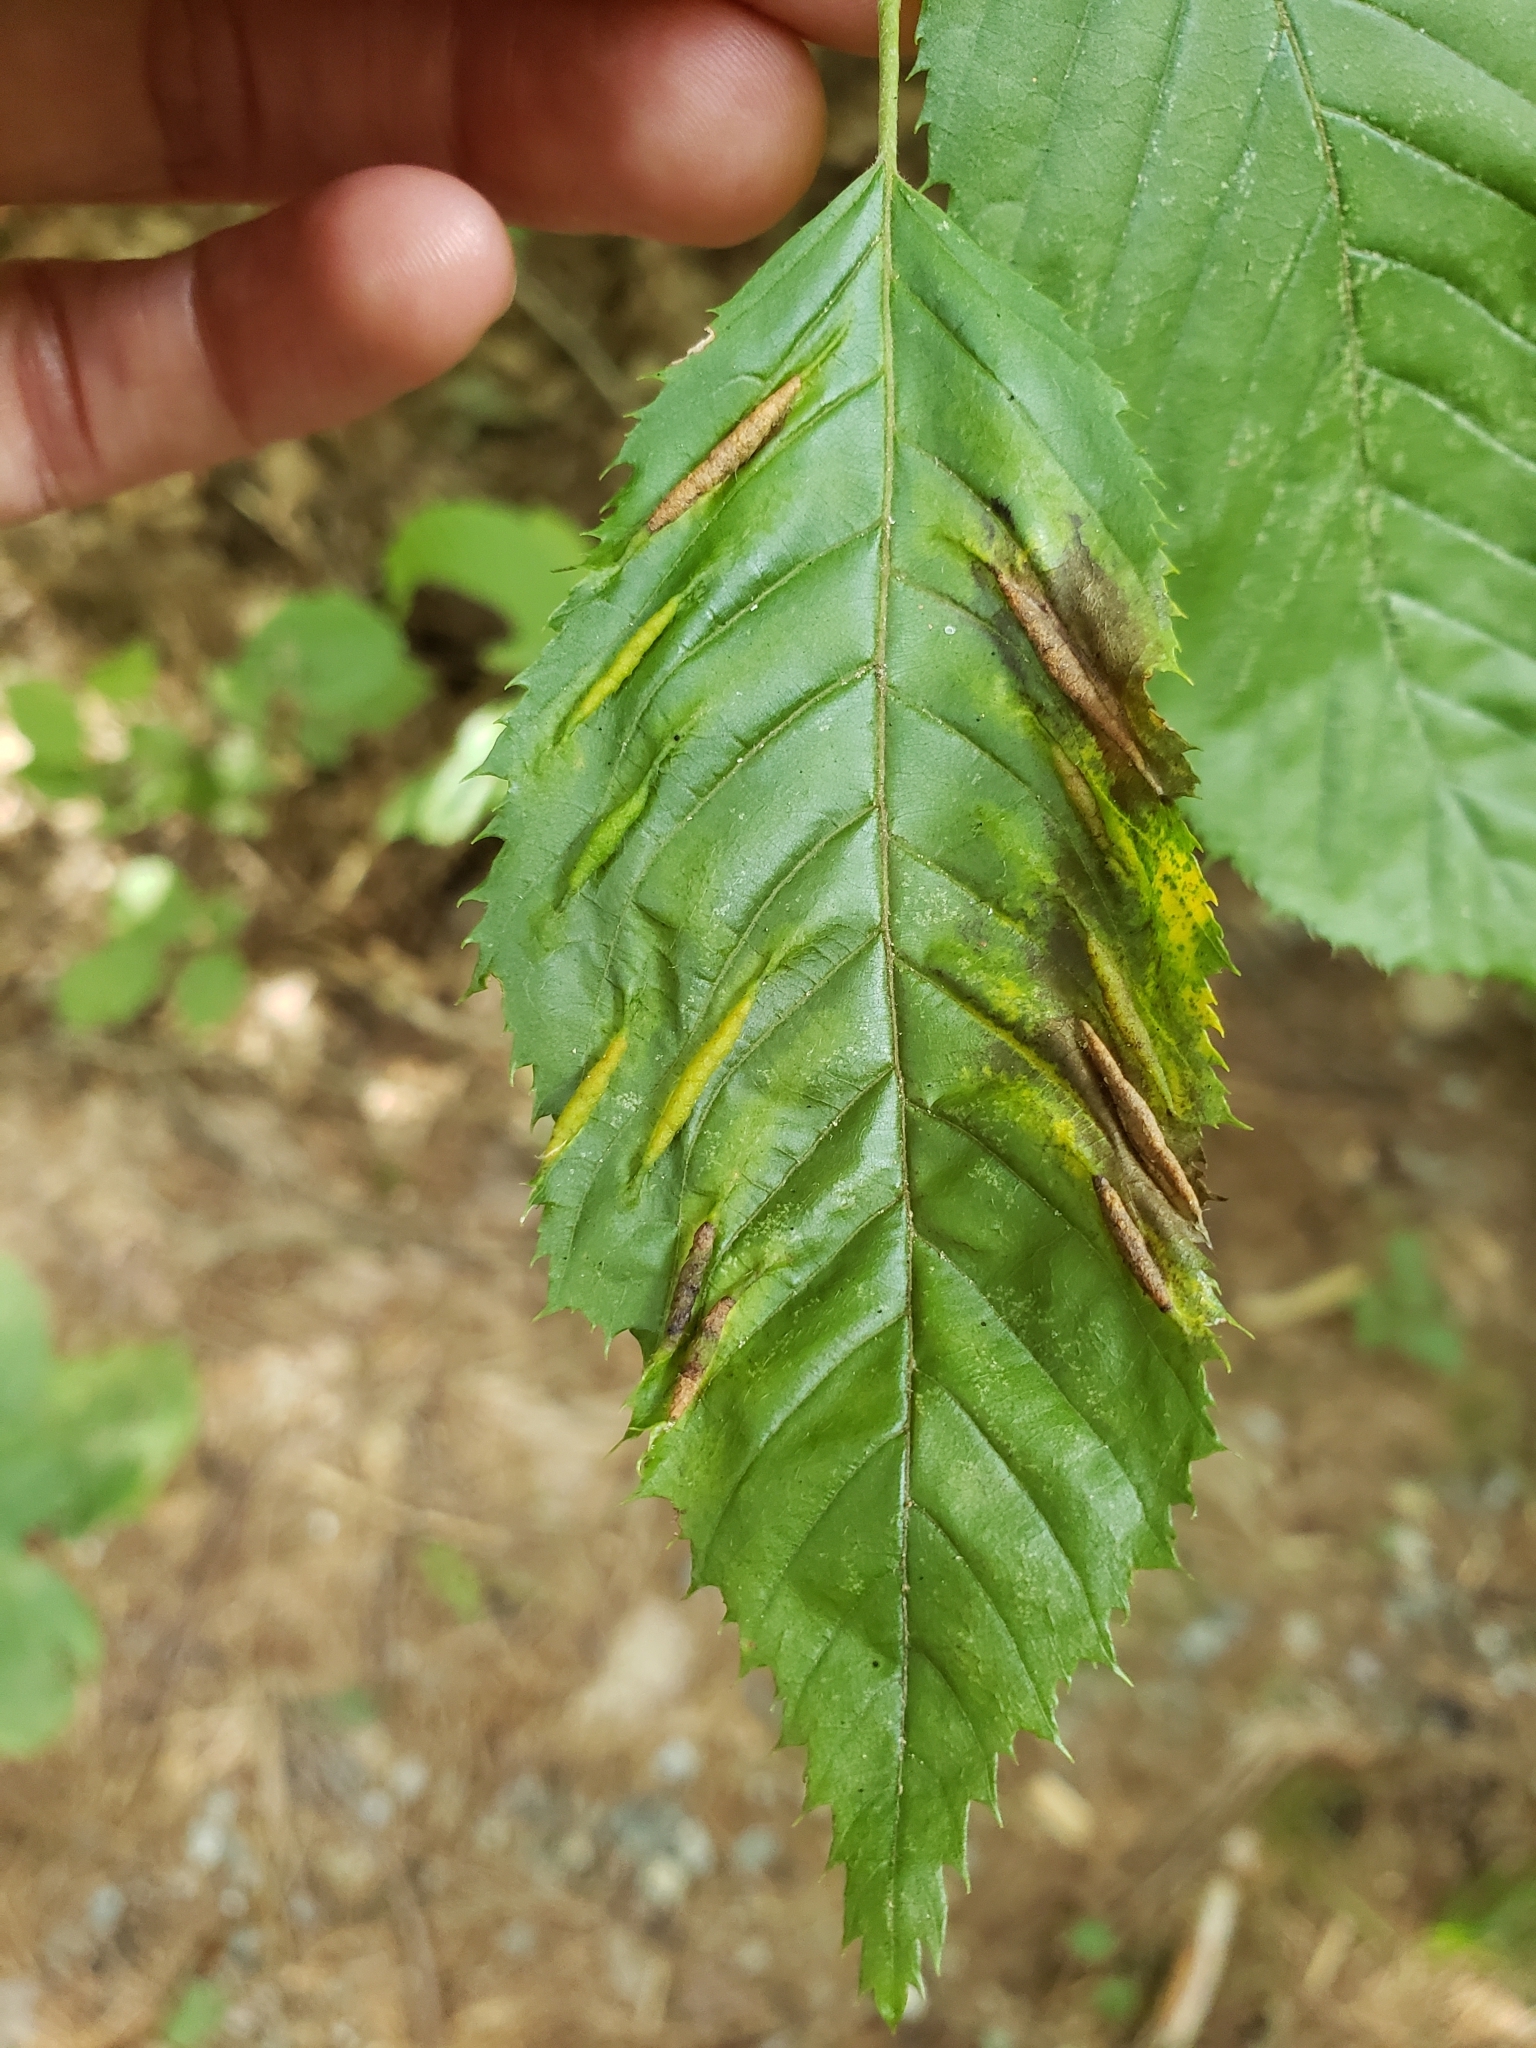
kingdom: Animalia
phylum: Arthropoda
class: Insecta
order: Diptera
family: Cecidomyiidae
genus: Dasineura
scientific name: Dasineura pudibunda
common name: Hornbeam leaf gall midge
